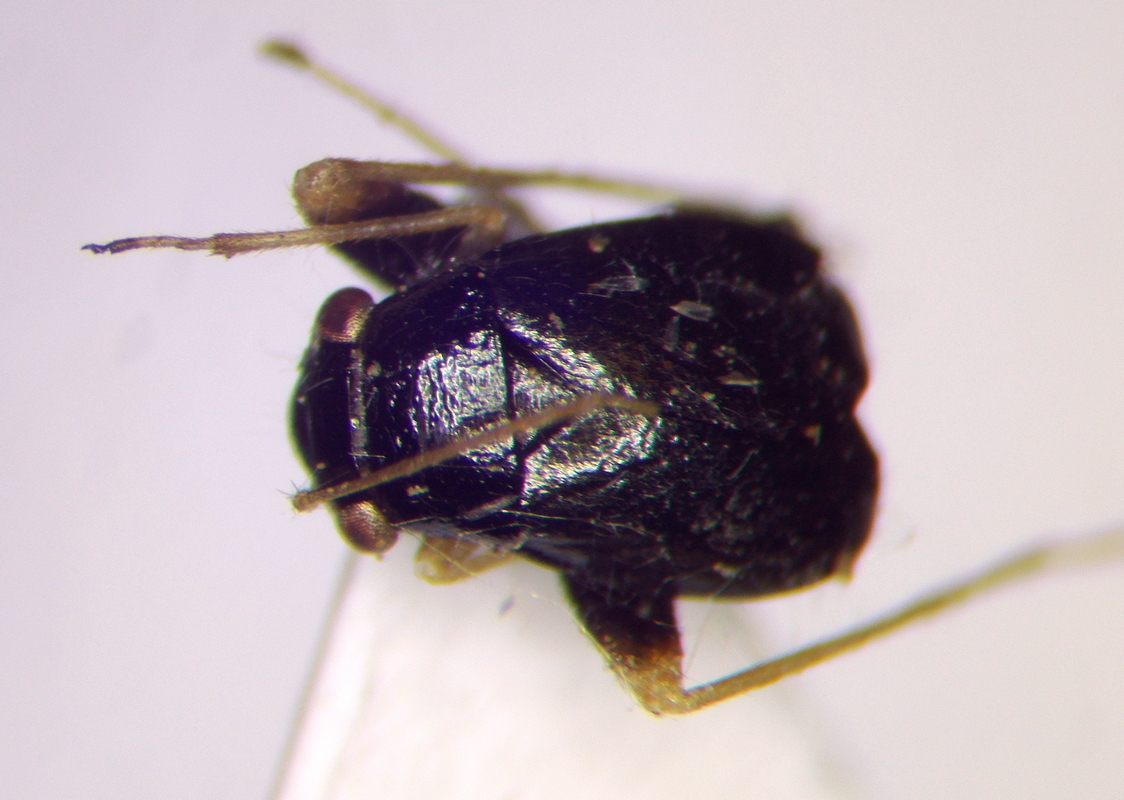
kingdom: Animalia
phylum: Arthropoda
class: Insecta
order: Hemiptera
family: Miridae
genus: Halticus
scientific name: Halticus apterus
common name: Fleahopper
